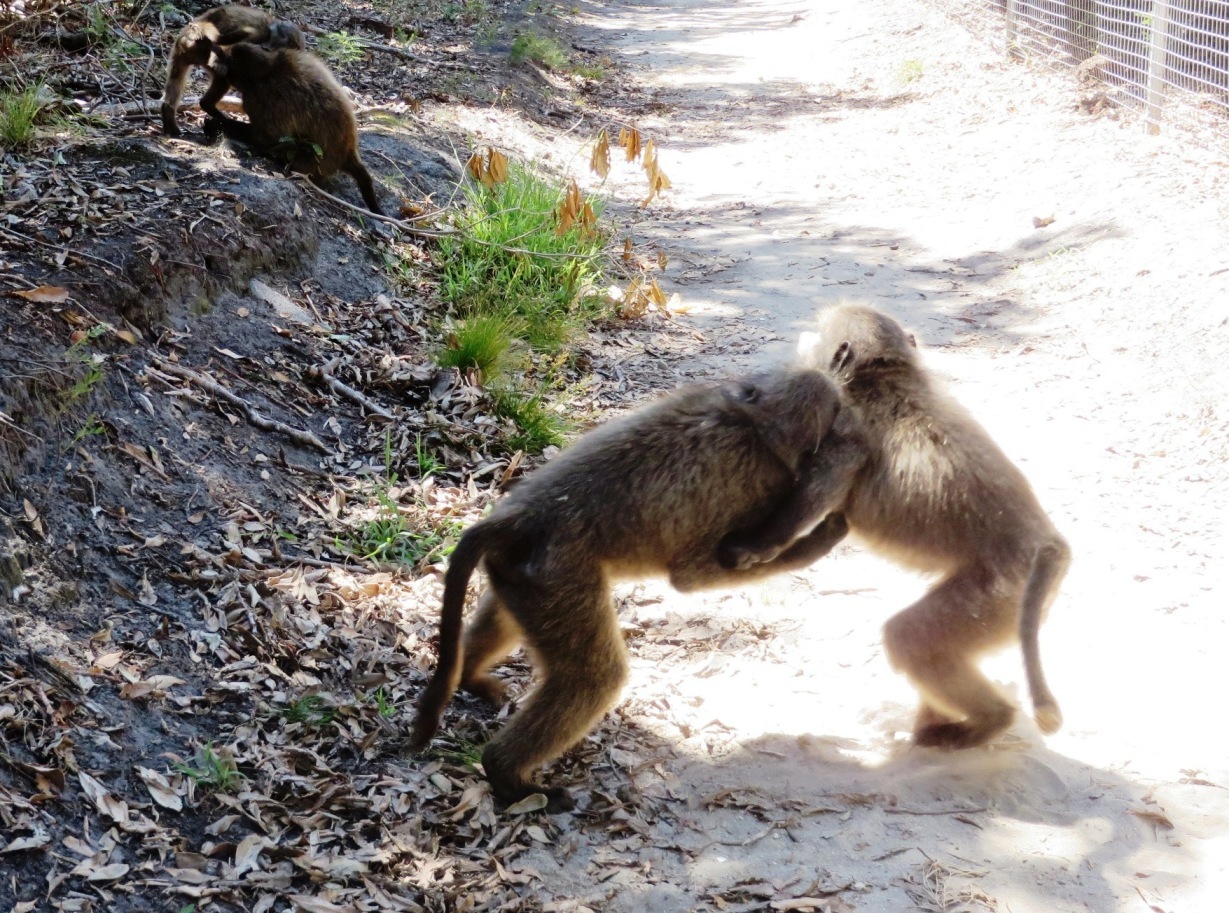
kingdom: Animalia
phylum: Chordata
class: Mammalia
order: Primates
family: Cercopithecidae
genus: Papio
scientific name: Papio ursinus
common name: Chacma baboon
